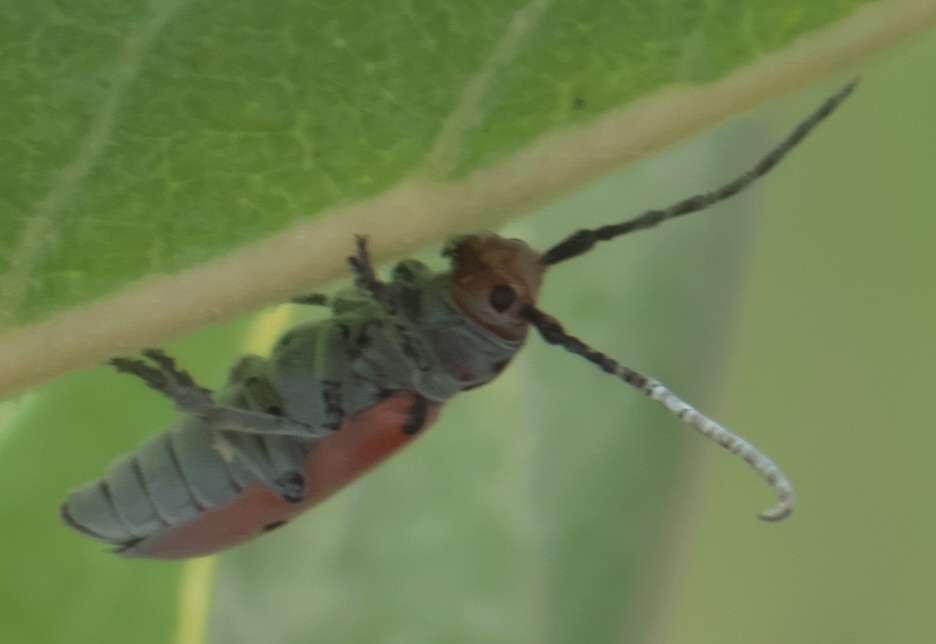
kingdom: Animalia
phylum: Arthropoda
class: Insecta
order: Coleoptera
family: Cerambycidae
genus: Tetraopes
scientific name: Tetraopes annulatus
